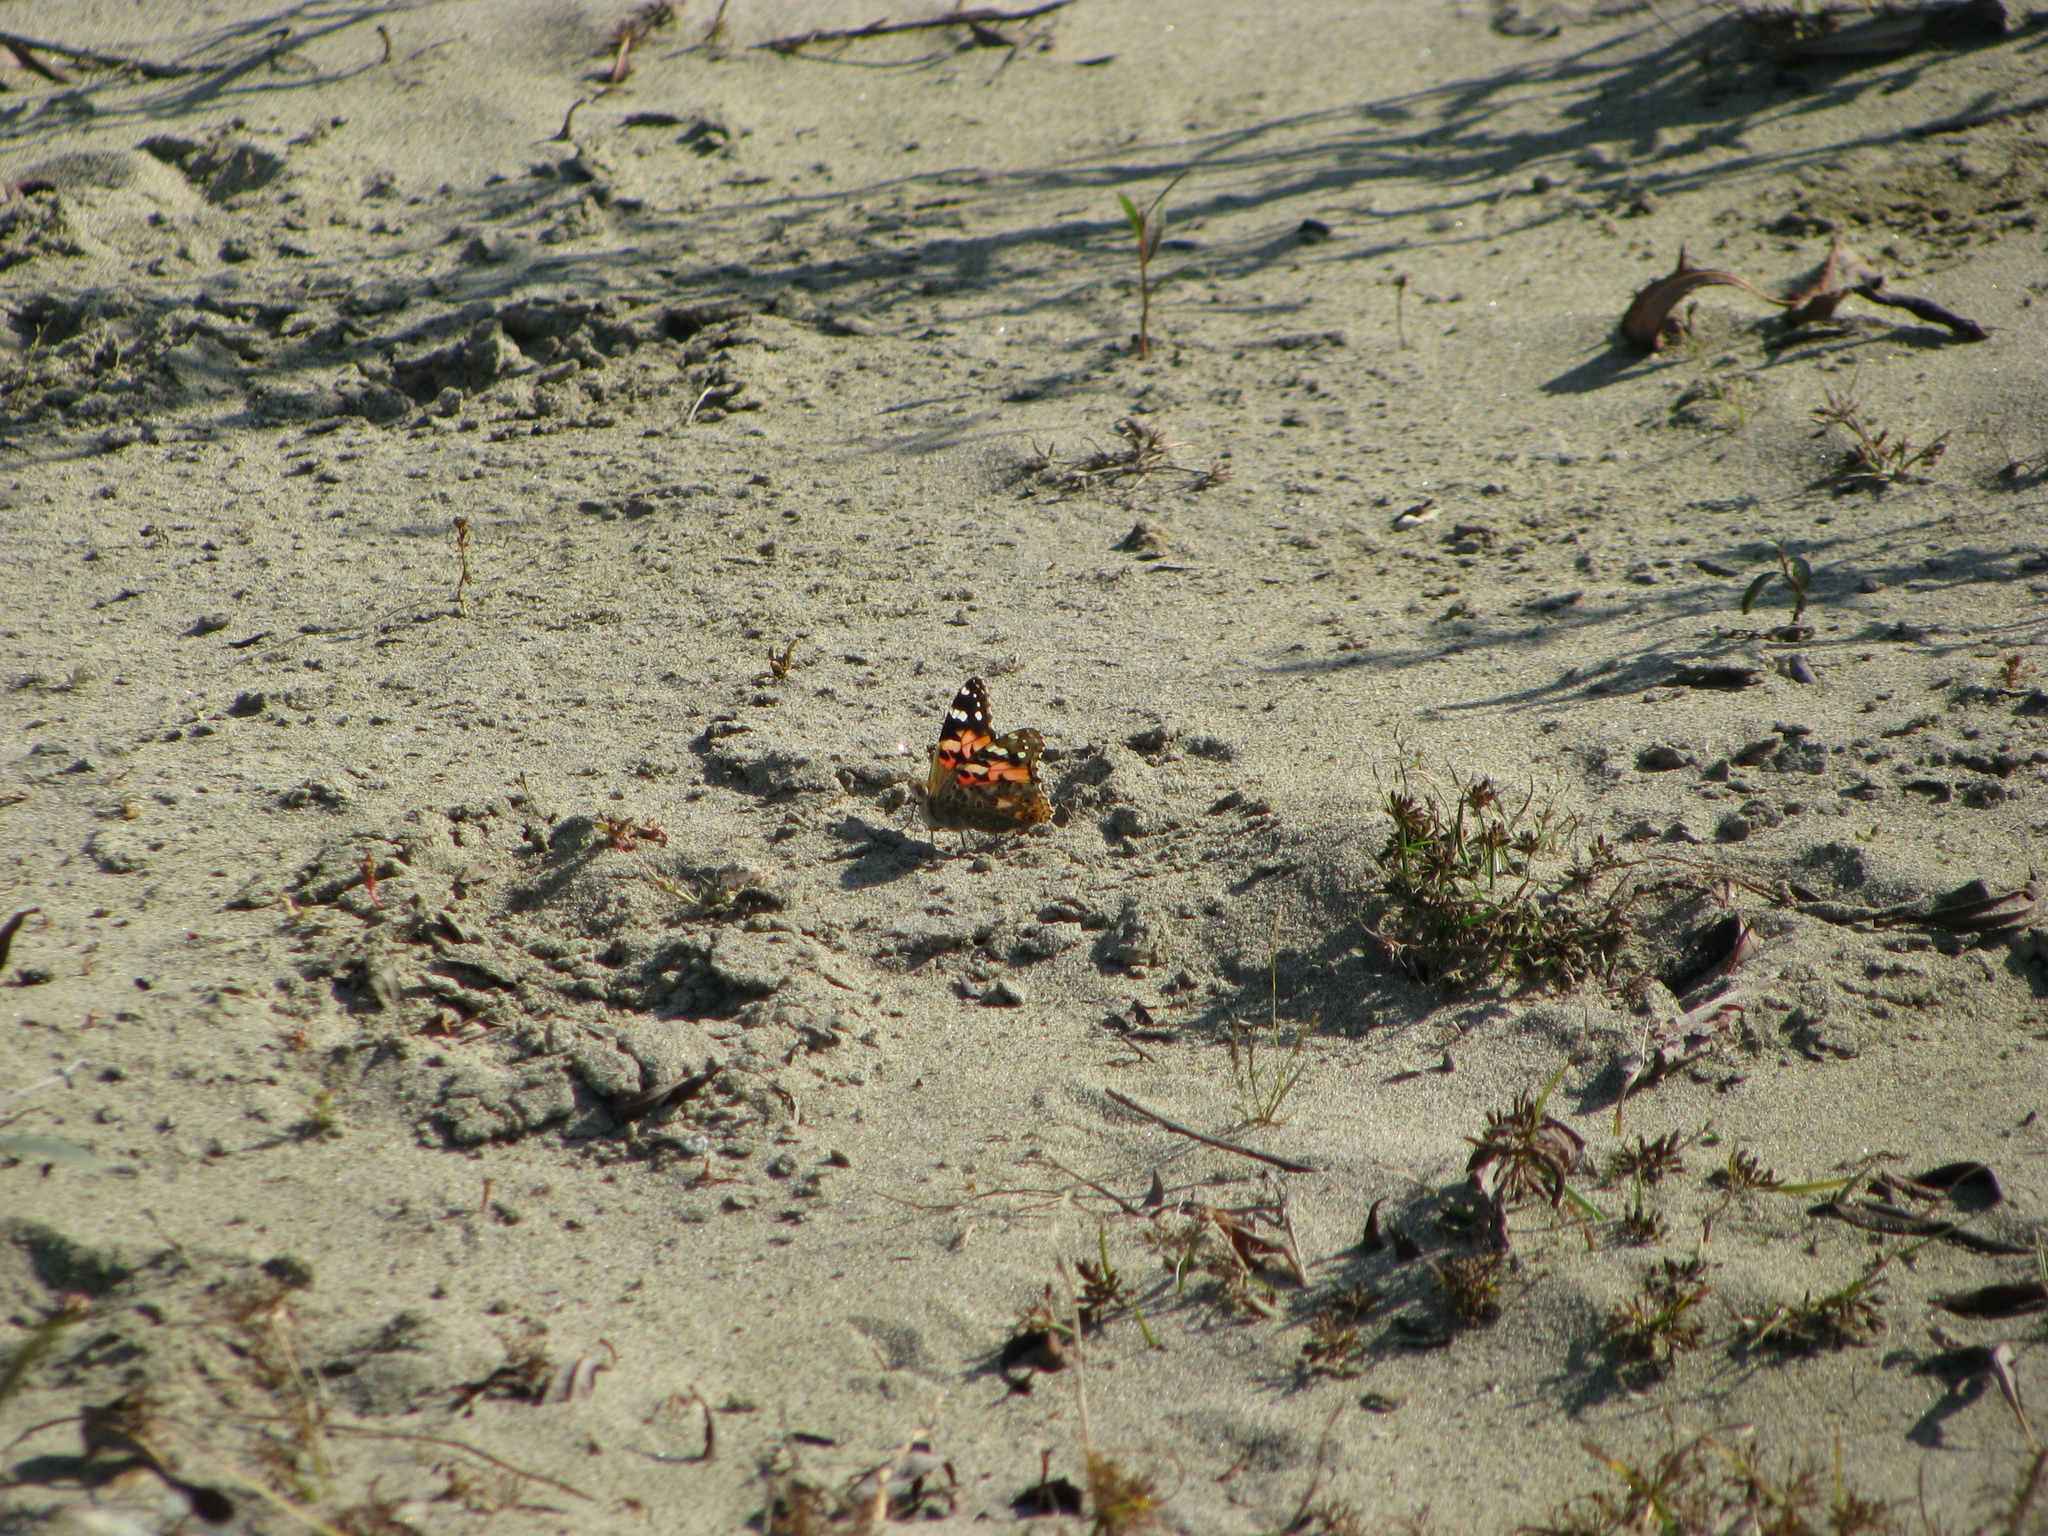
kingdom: Animalia
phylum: Arthropoda
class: Insecta
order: Lepidoptera
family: Nymphalidae
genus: Vanessa
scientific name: Vanessa cardui
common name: Painted lady
